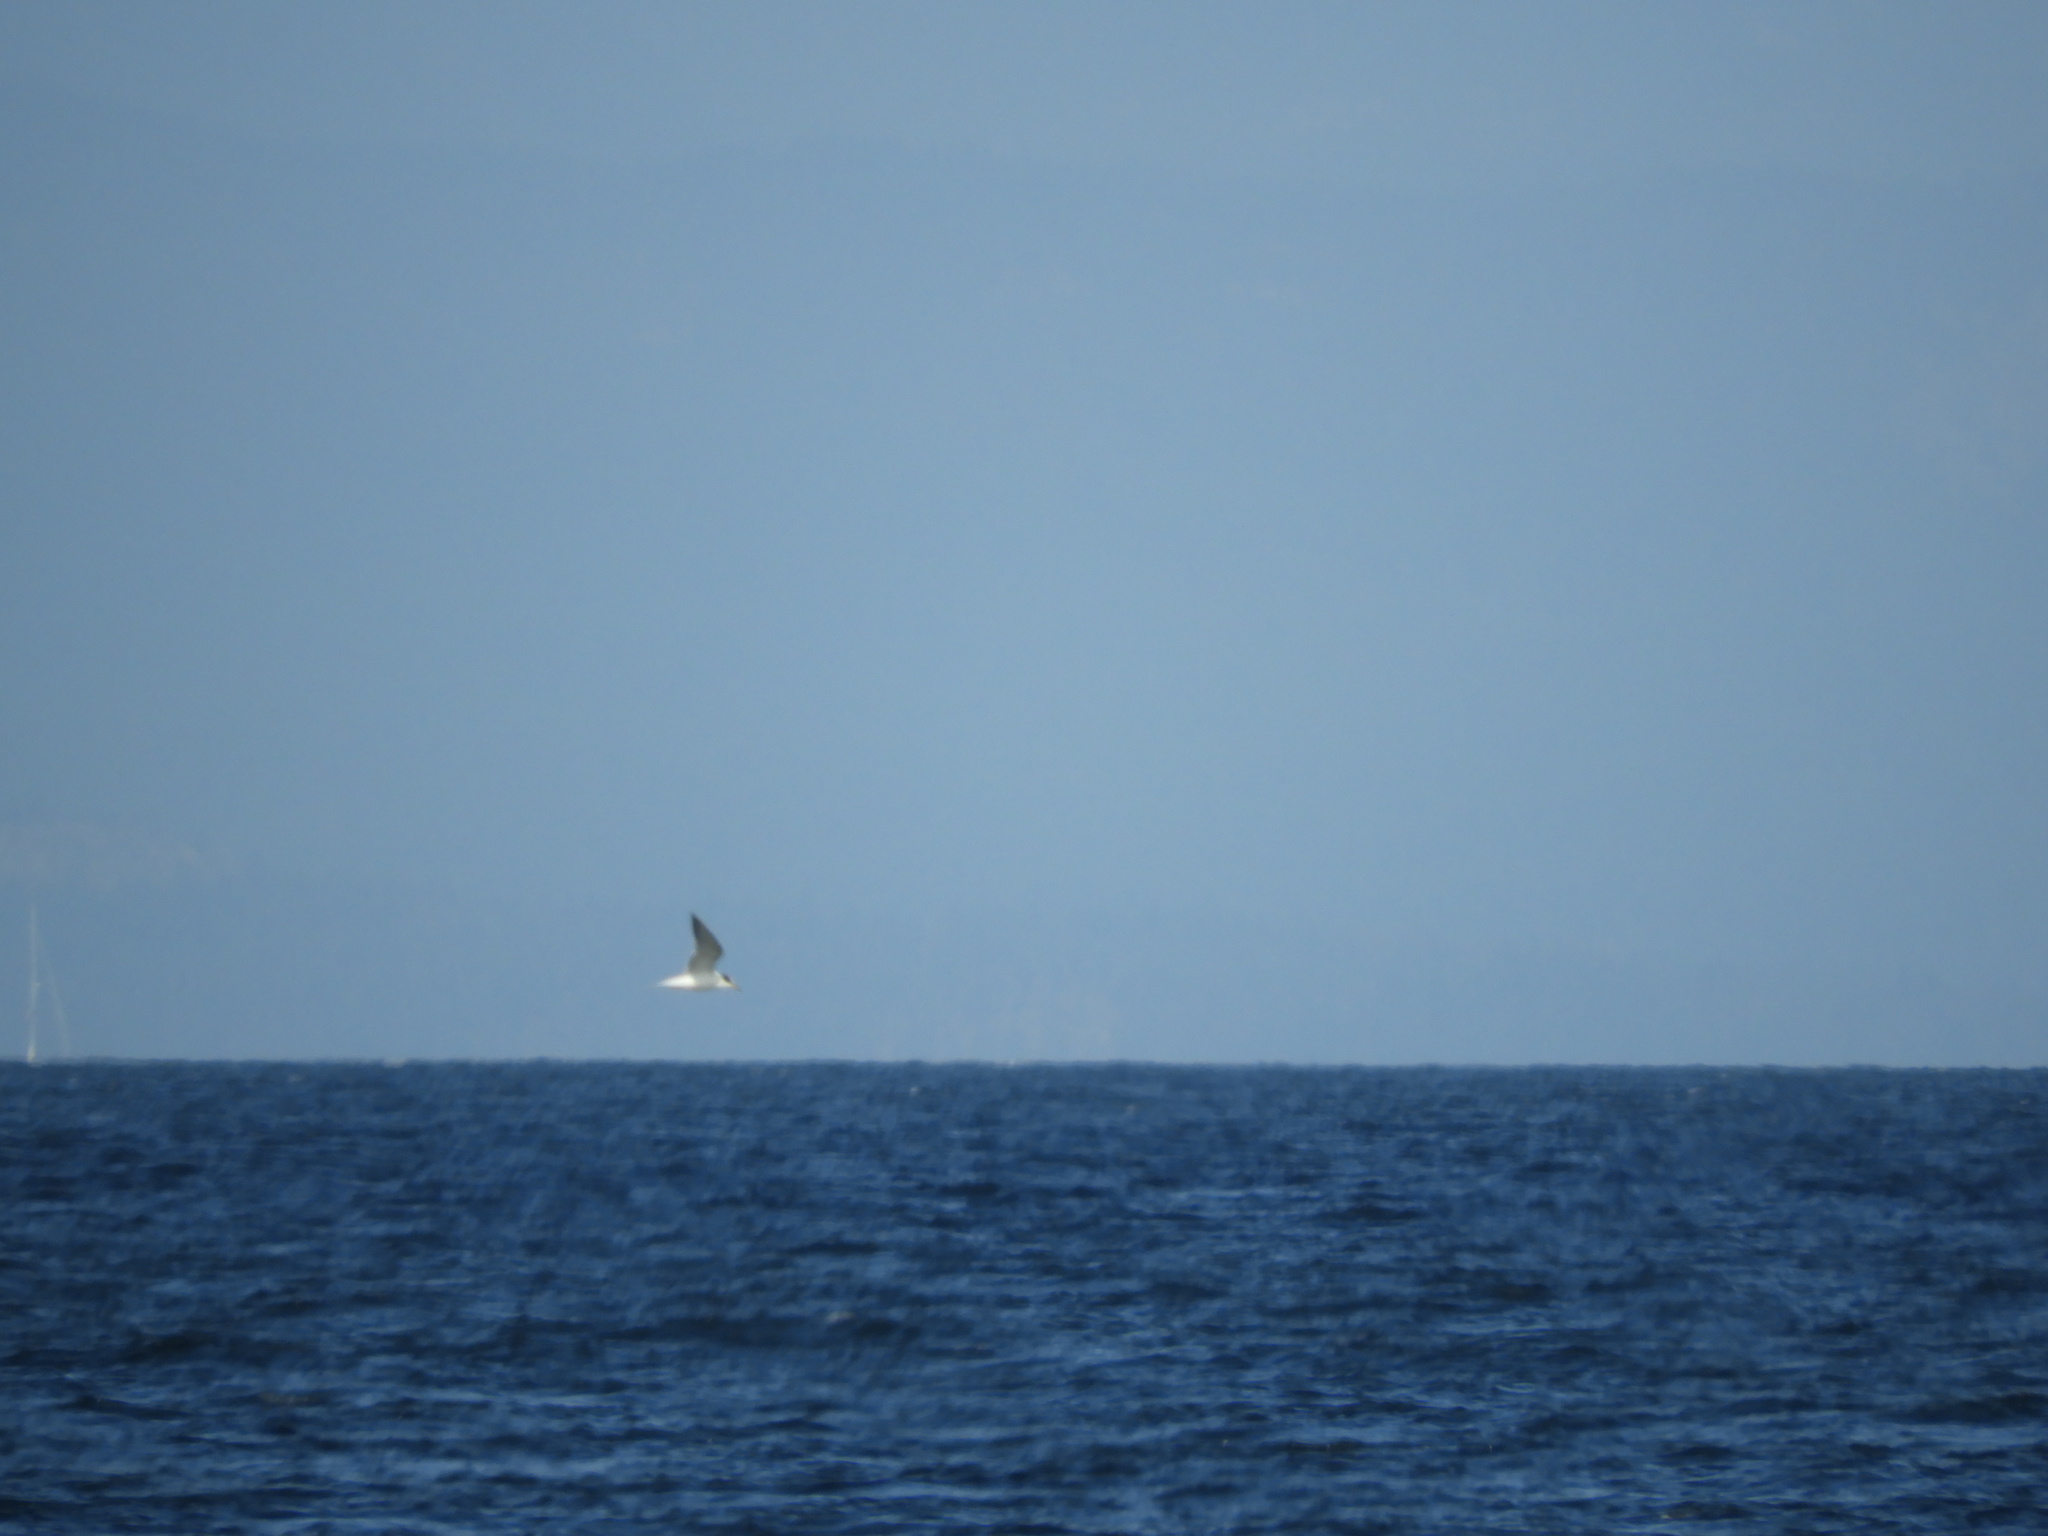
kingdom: Animalia
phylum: Chordata
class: Aves
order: Charadriiformes
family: Laridae
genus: Sterna
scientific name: Sterna hirundo
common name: Common tern
